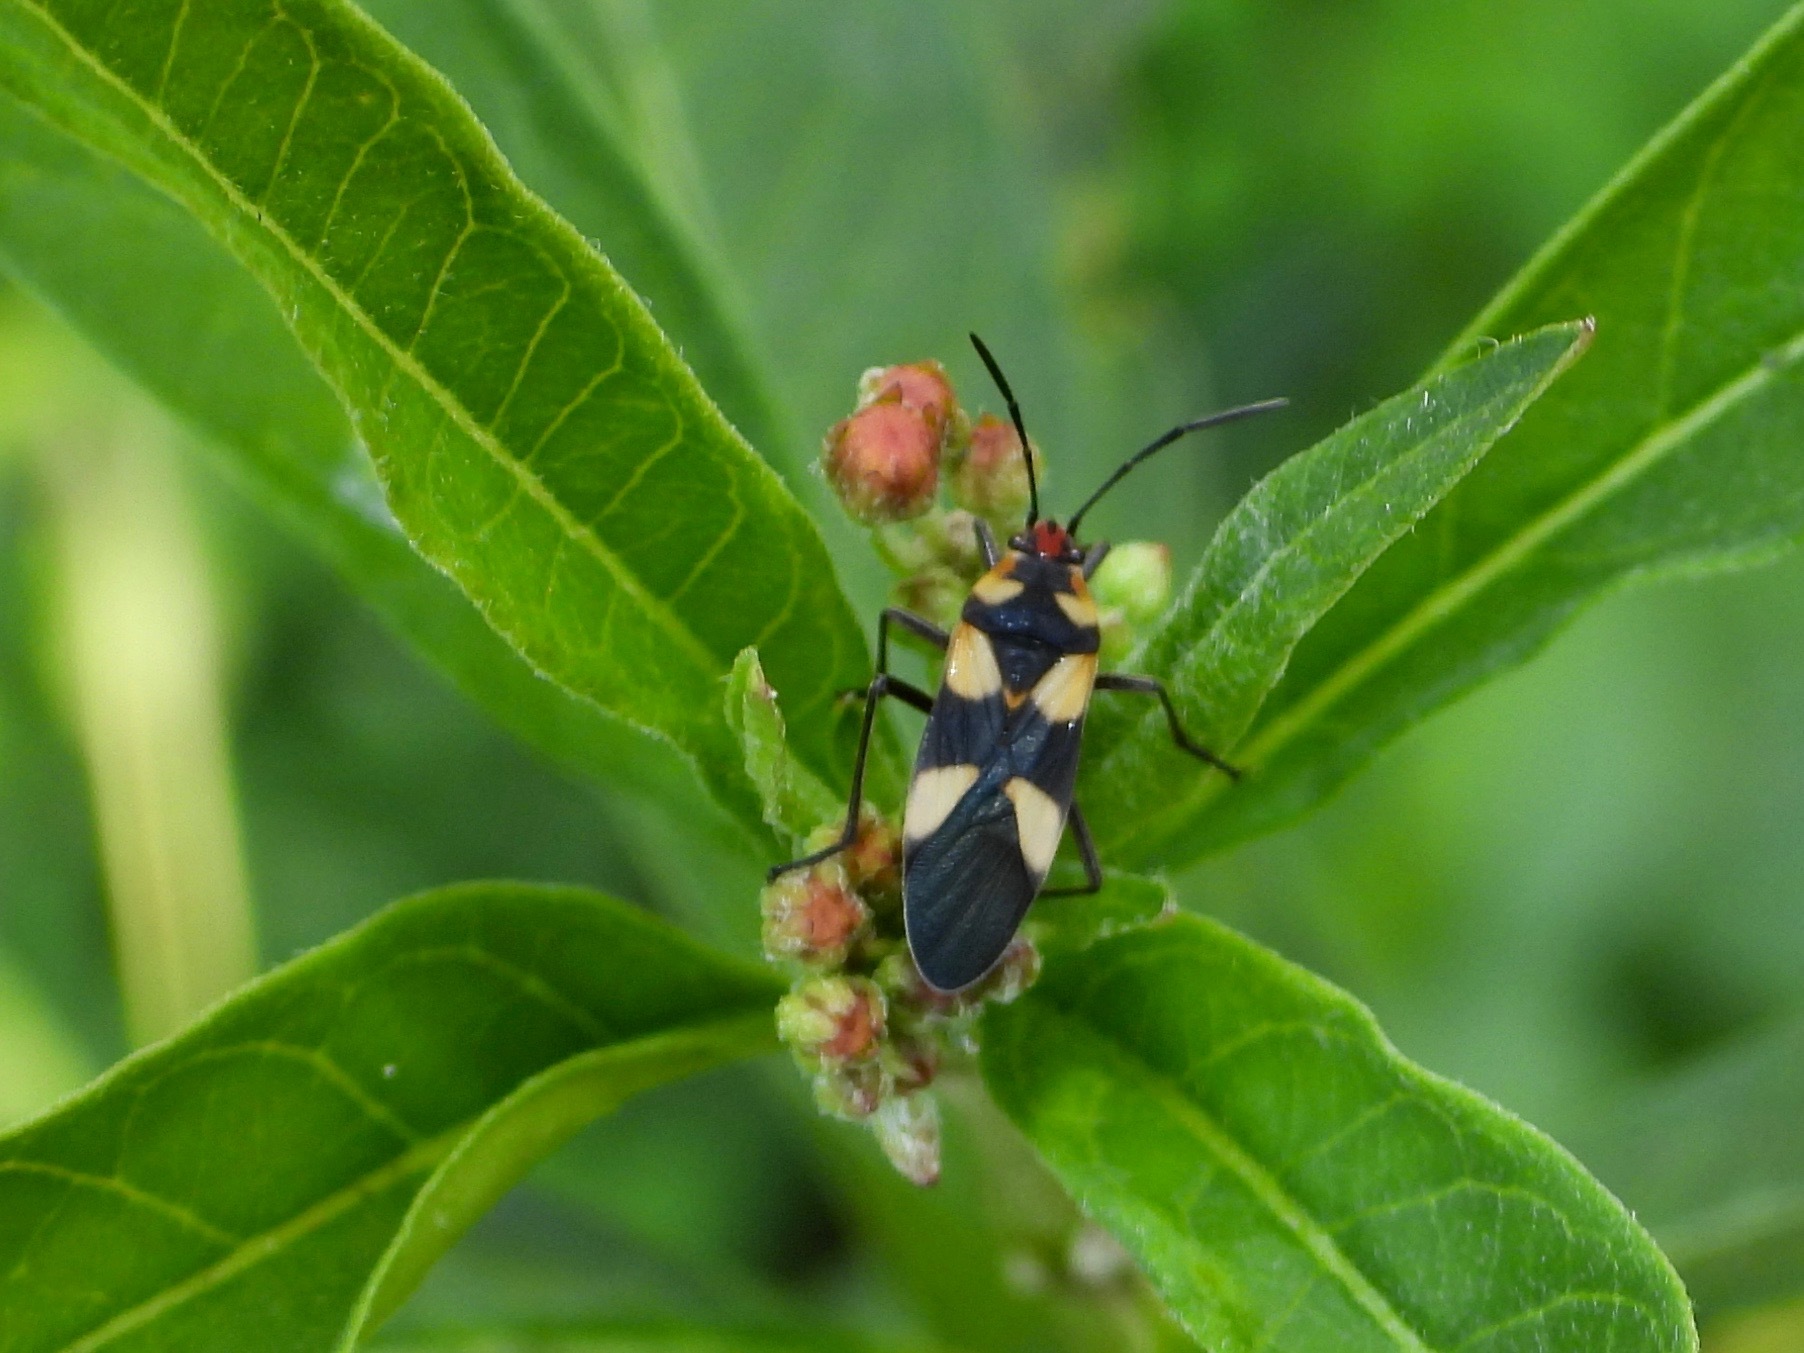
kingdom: Animalia
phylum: Arthropoda
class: Insecta
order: Hemiptera
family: Lygaeidae
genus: Oncopeltus
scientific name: Oncopeltus cingulifer
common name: Lygaeid bug
